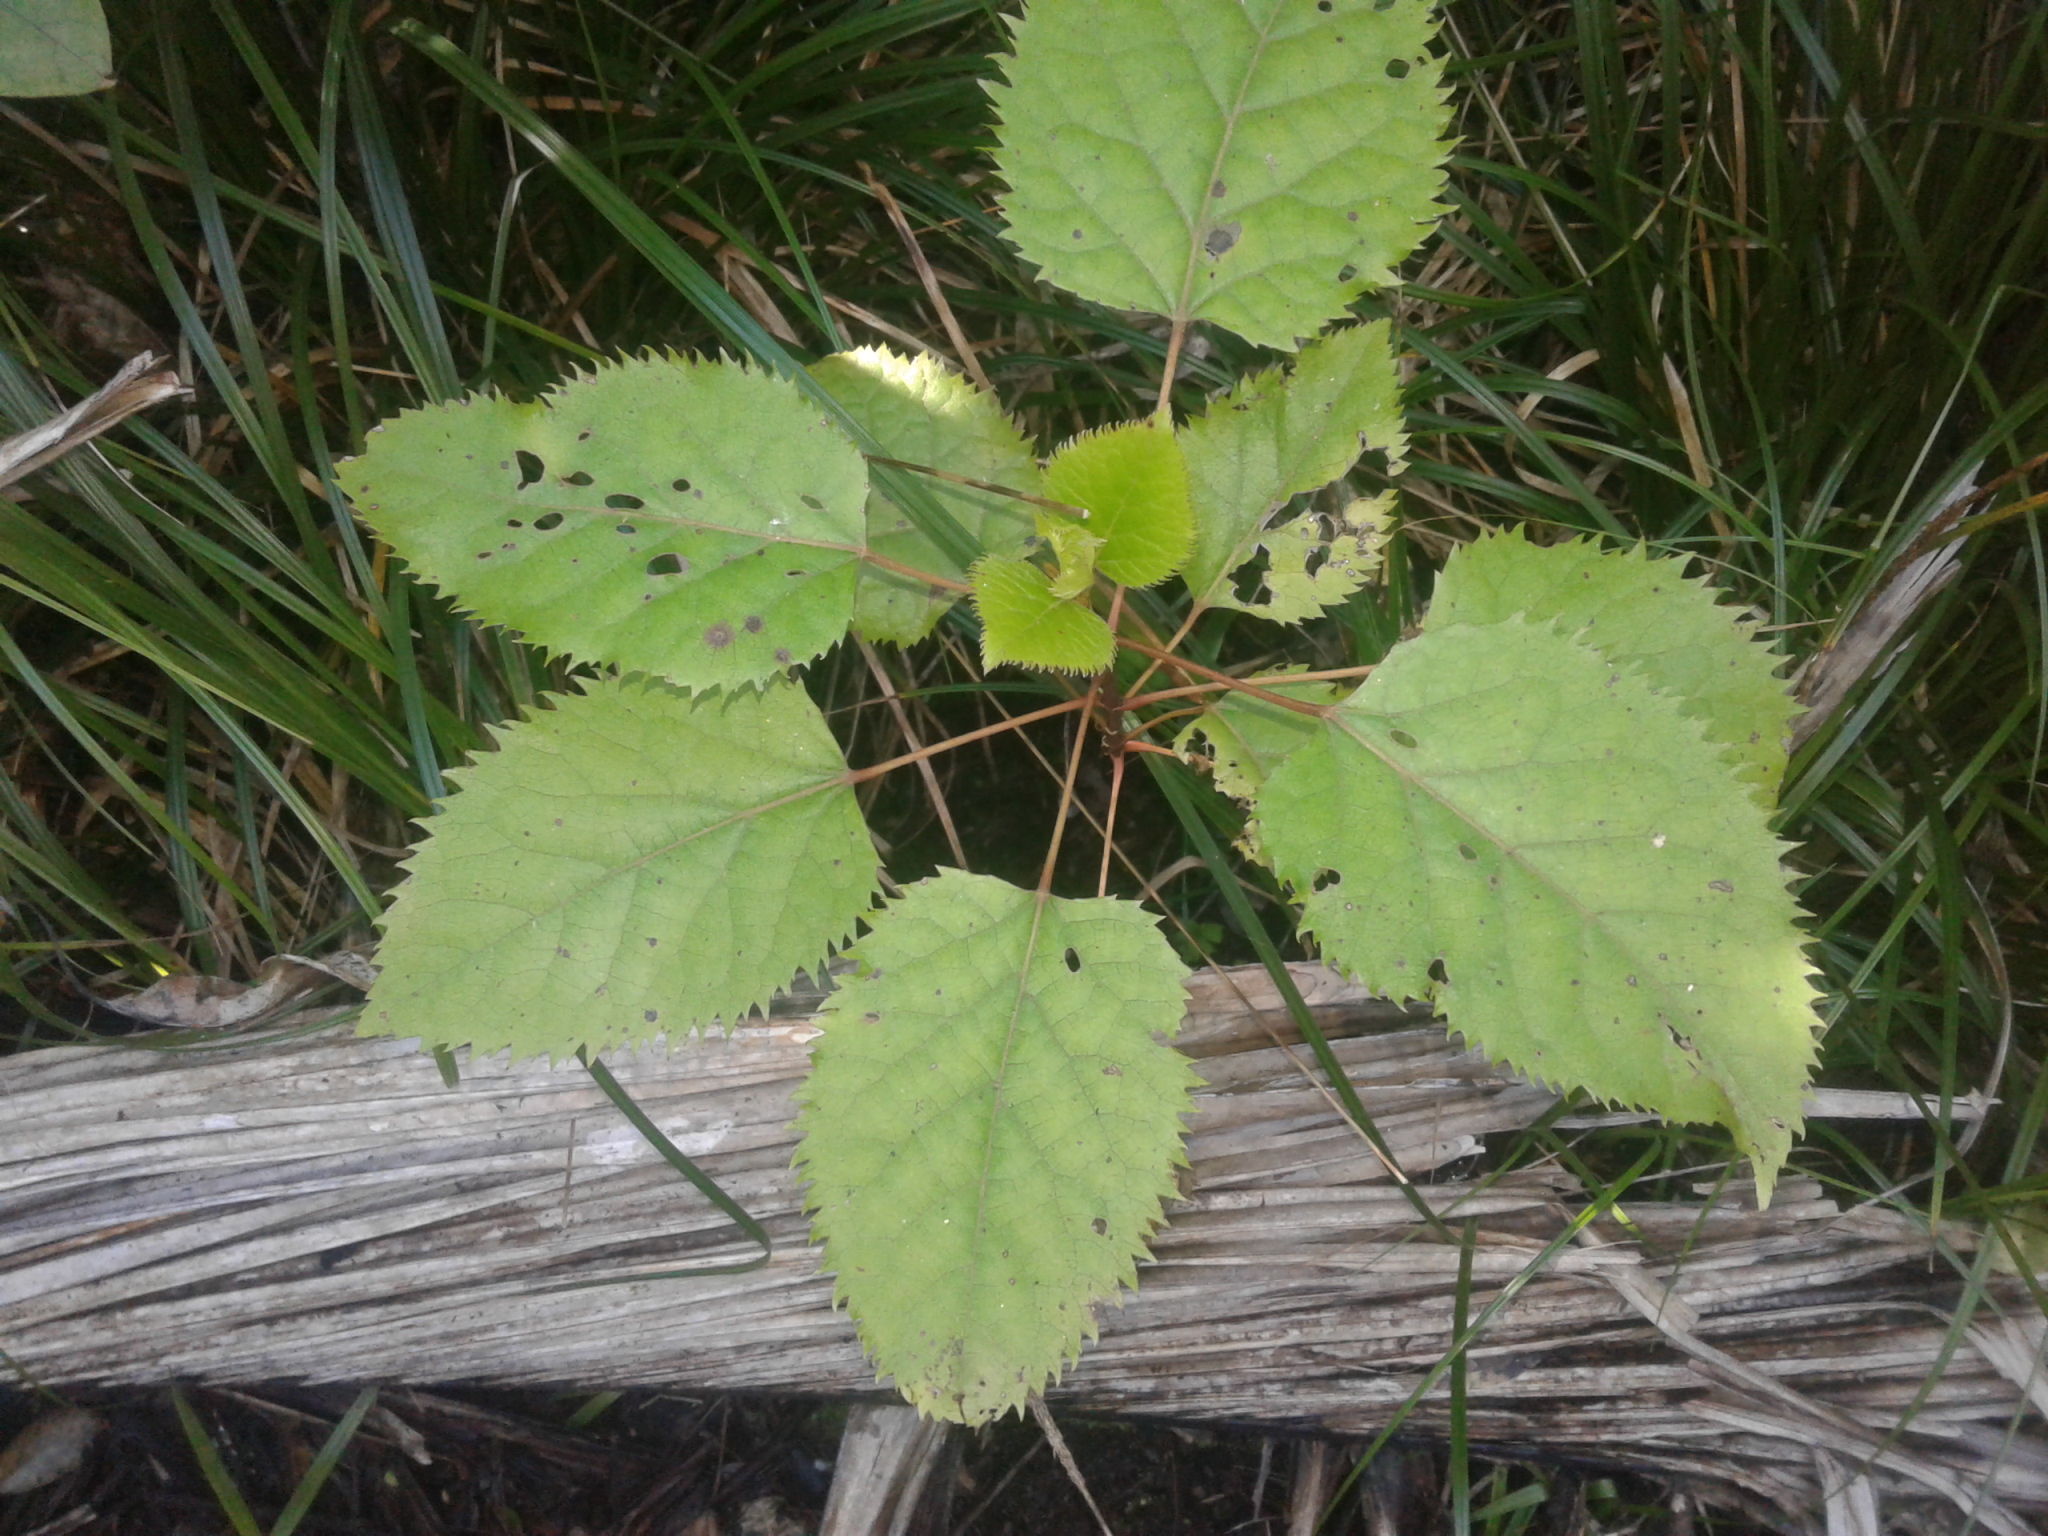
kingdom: Plantae
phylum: Tracheophyta
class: Magnoliopsida
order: Oxalidales
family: Elaeocarpaceae
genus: Aristotelia
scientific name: Aristotelia serrata
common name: New zealand wineberry
